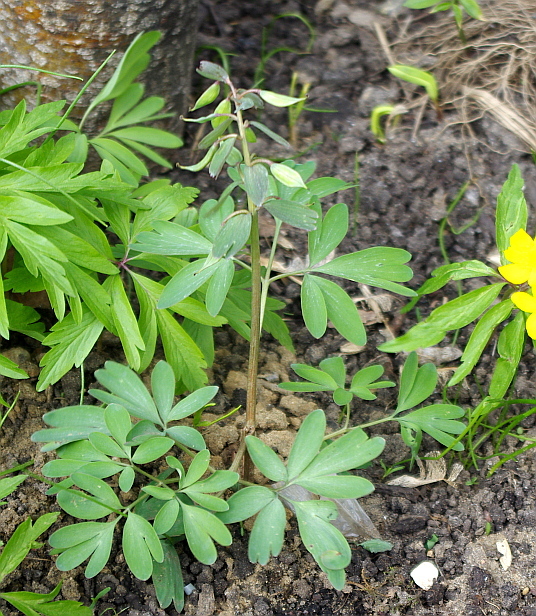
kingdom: Plantae
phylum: Tracheophyta
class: Magnoliopsida
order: Ranunculales
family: Papaveraceae
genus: Corydalis
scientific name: Corydalis solida
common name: Bird-in-a-bush
